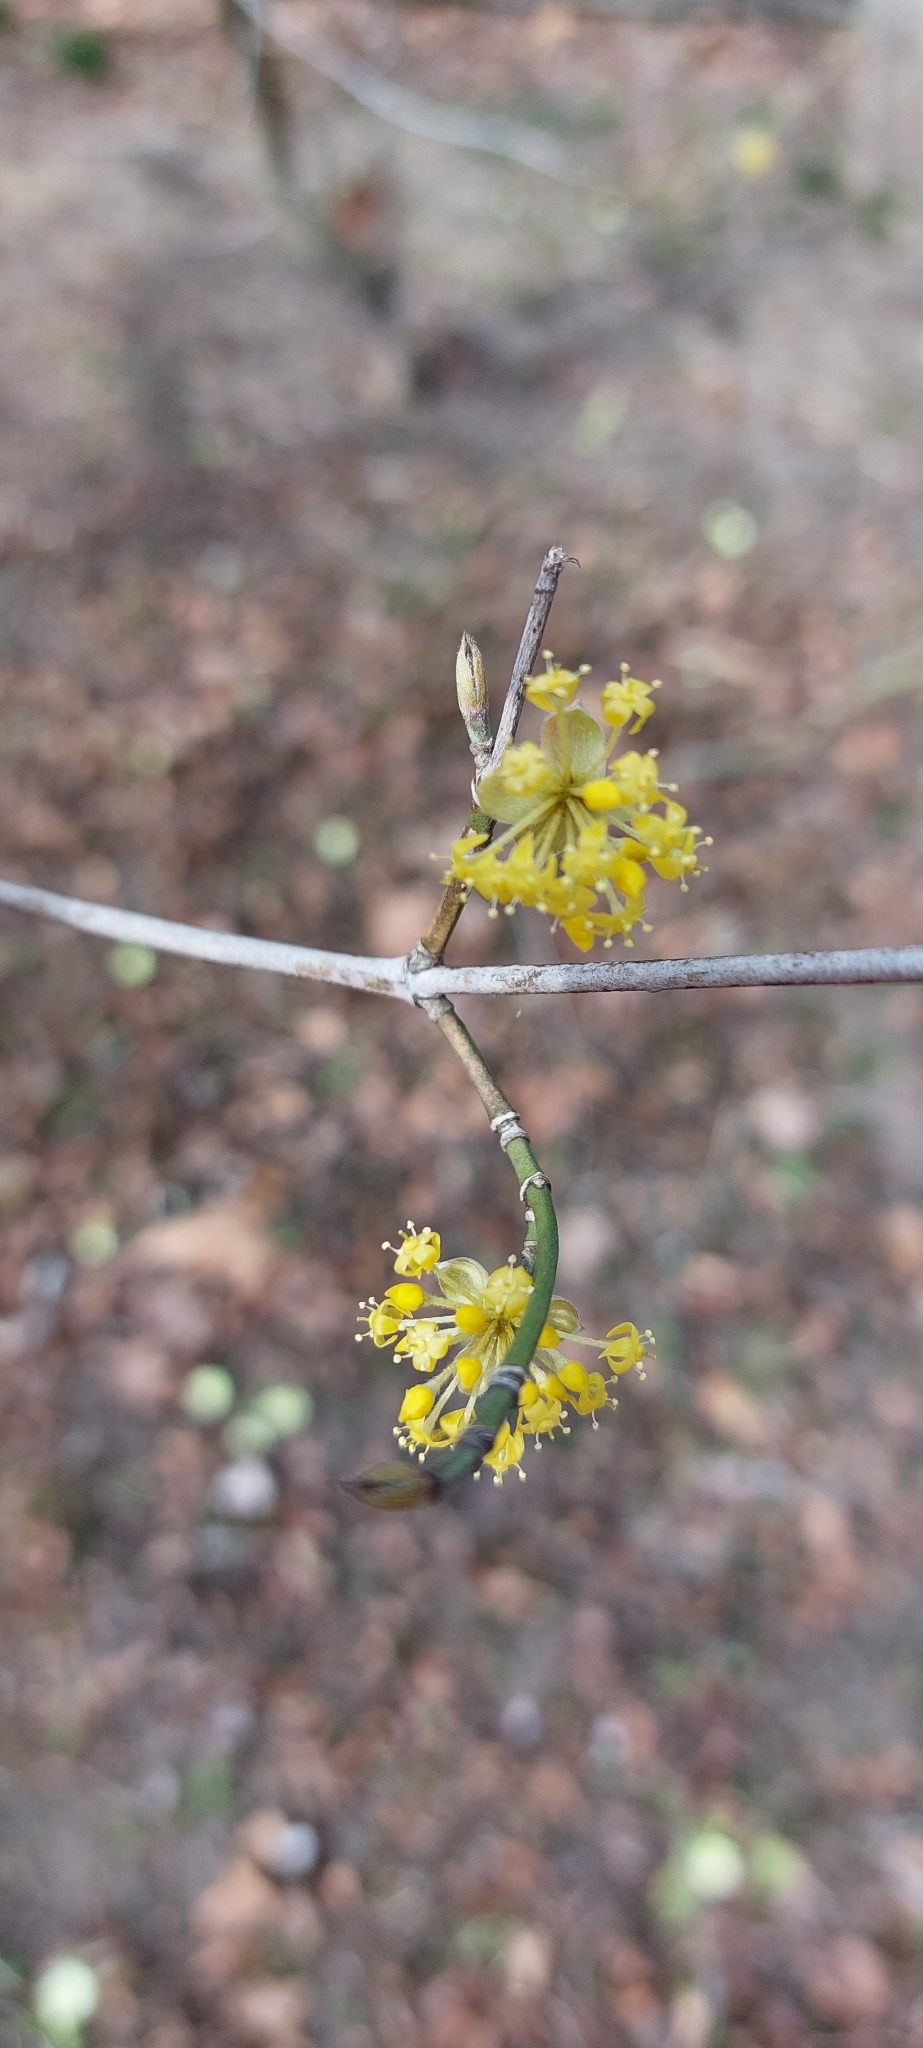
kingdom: Plantae
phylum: Tracheophyta
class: Magnoliopsida
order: Cornales
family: Cornaceae
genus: Cornus
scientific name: Cornus mas
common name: Cornelian-cherry
